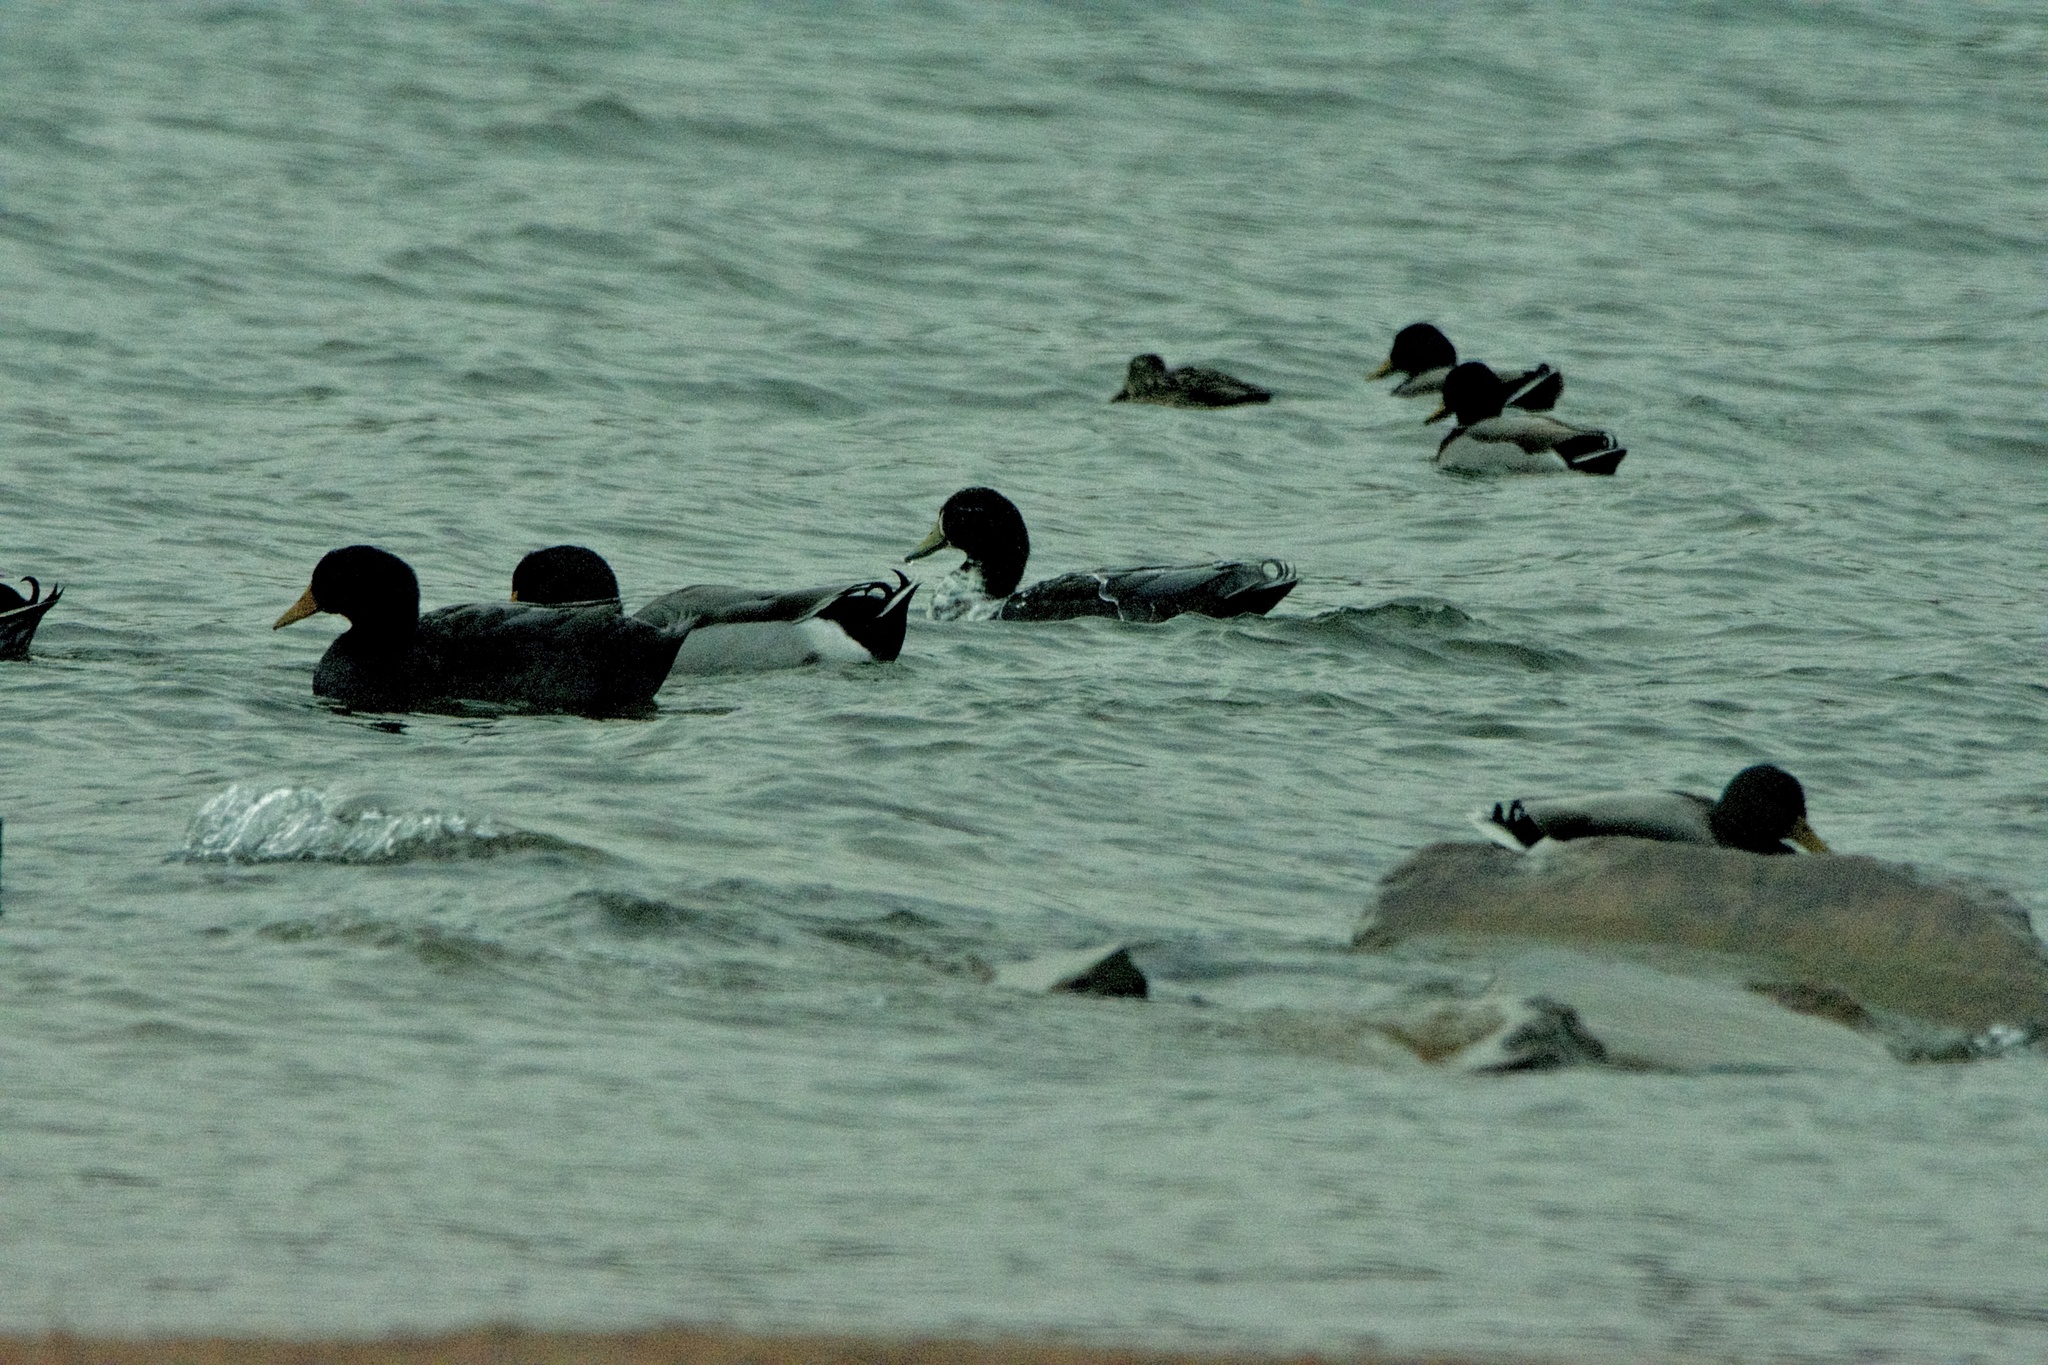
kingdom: Animalia
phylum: Chordata
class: Aves
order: Anseriformes
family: Anatidae
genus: Anas
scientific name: Anas platyrhynchos
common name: Mallard
